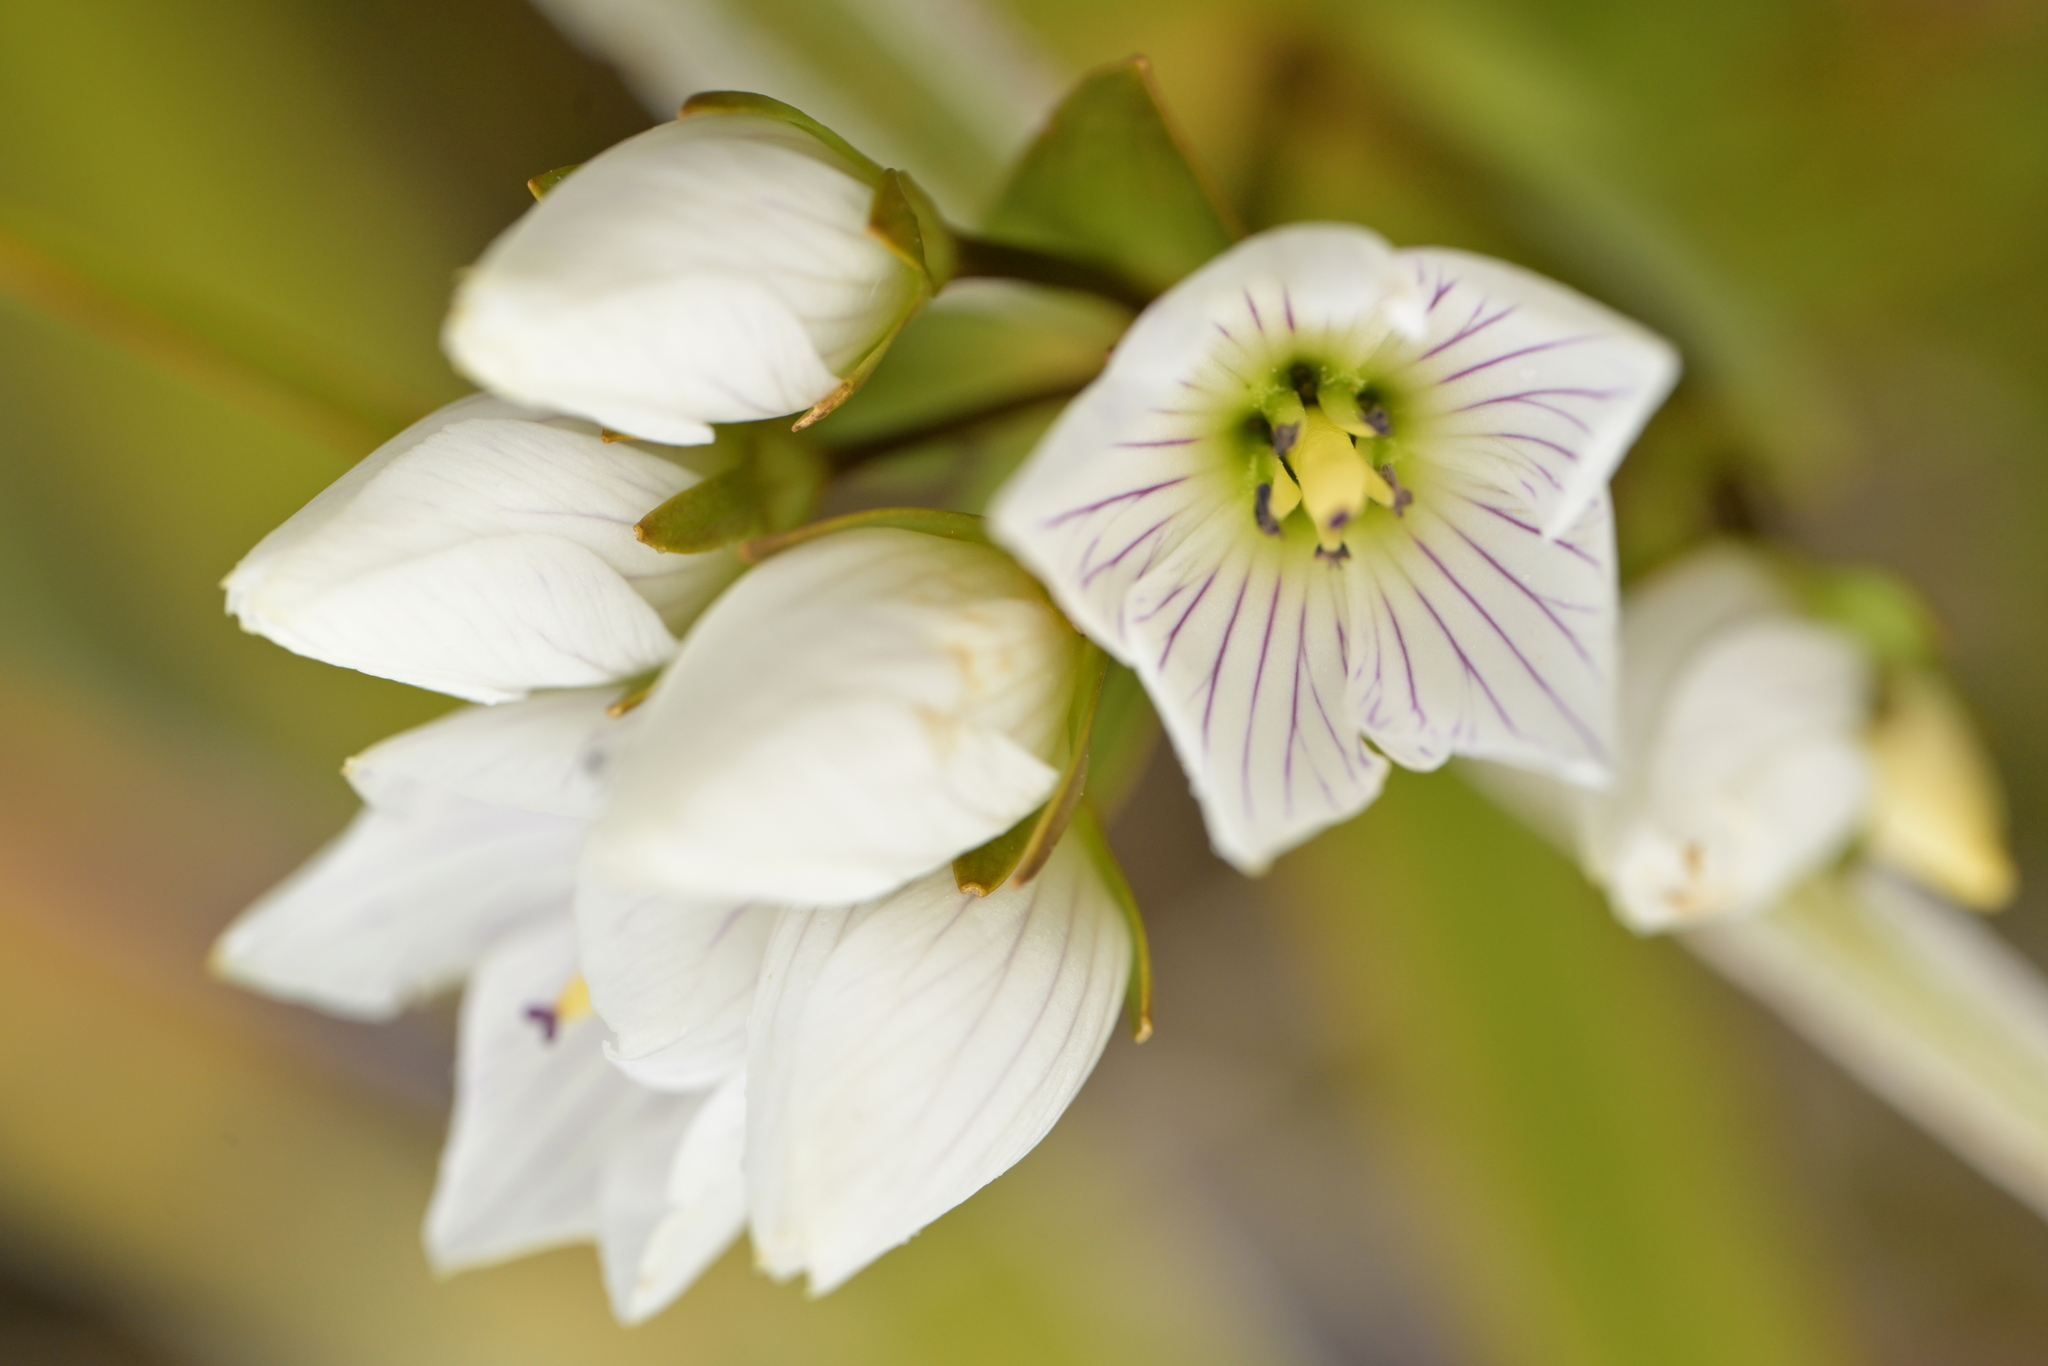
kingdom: Plantae
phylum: Tracheophyta
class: Magnoliopsida
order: Gentianales
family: Gentianaceae
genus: Gentianella
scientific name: Gentianella montana
